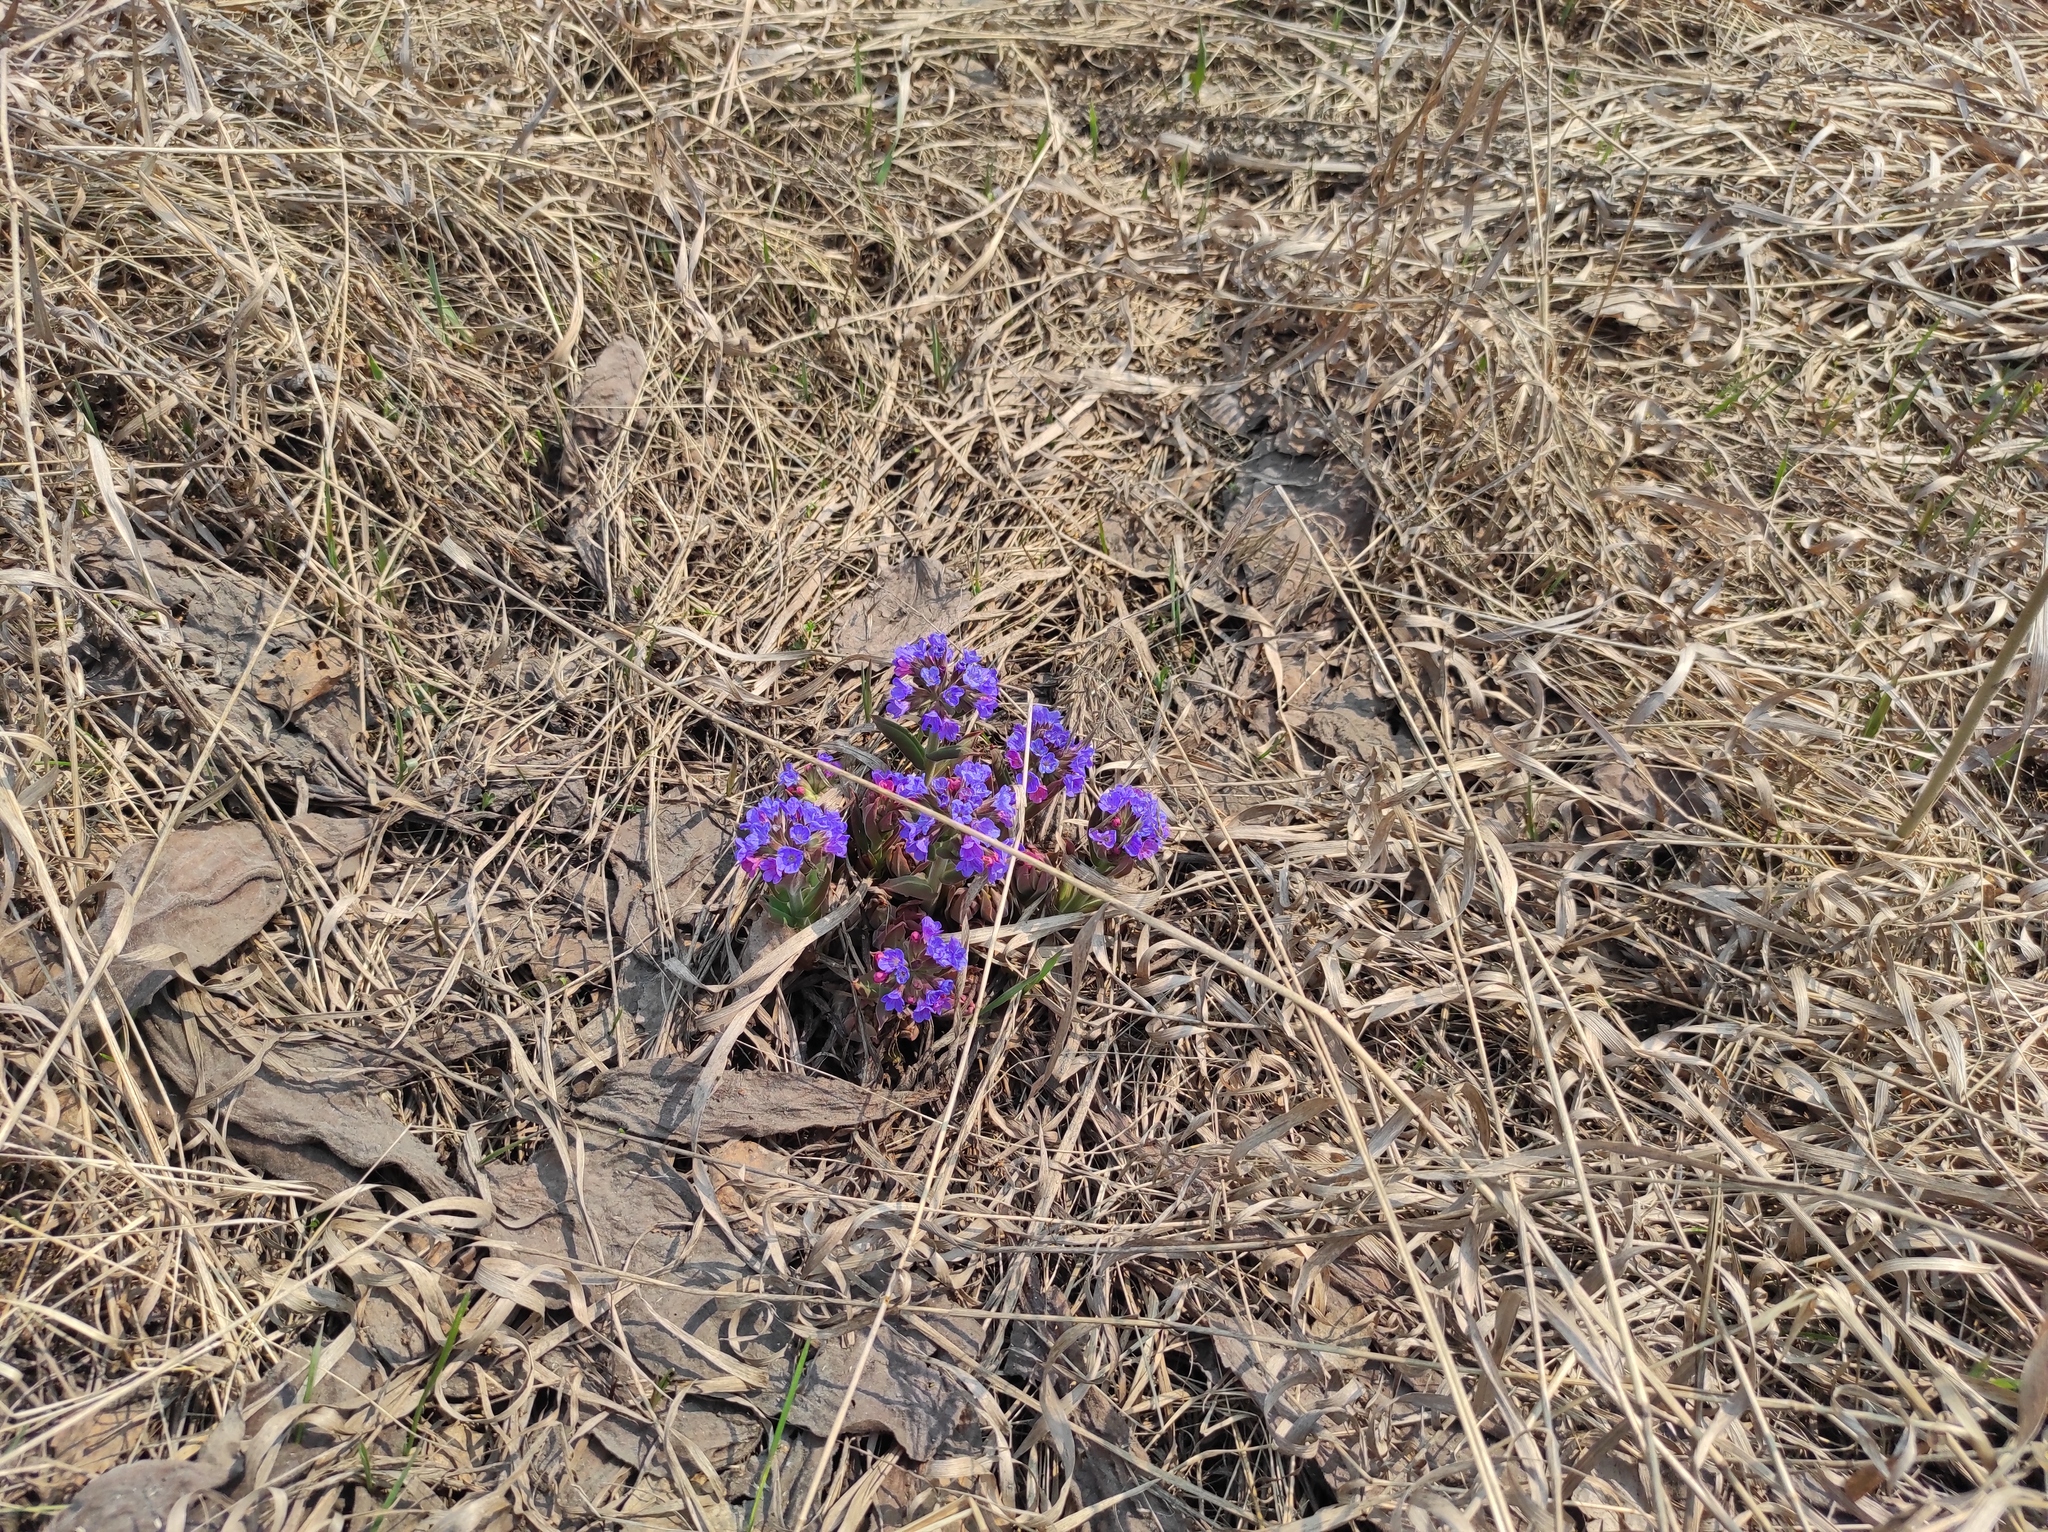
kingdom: Plantae
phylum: Tracheophyta
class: Magnoliopsida
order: Boraginales
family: Boraginaceae
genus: Pulmonaria
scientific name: Pulmonaria mollis
